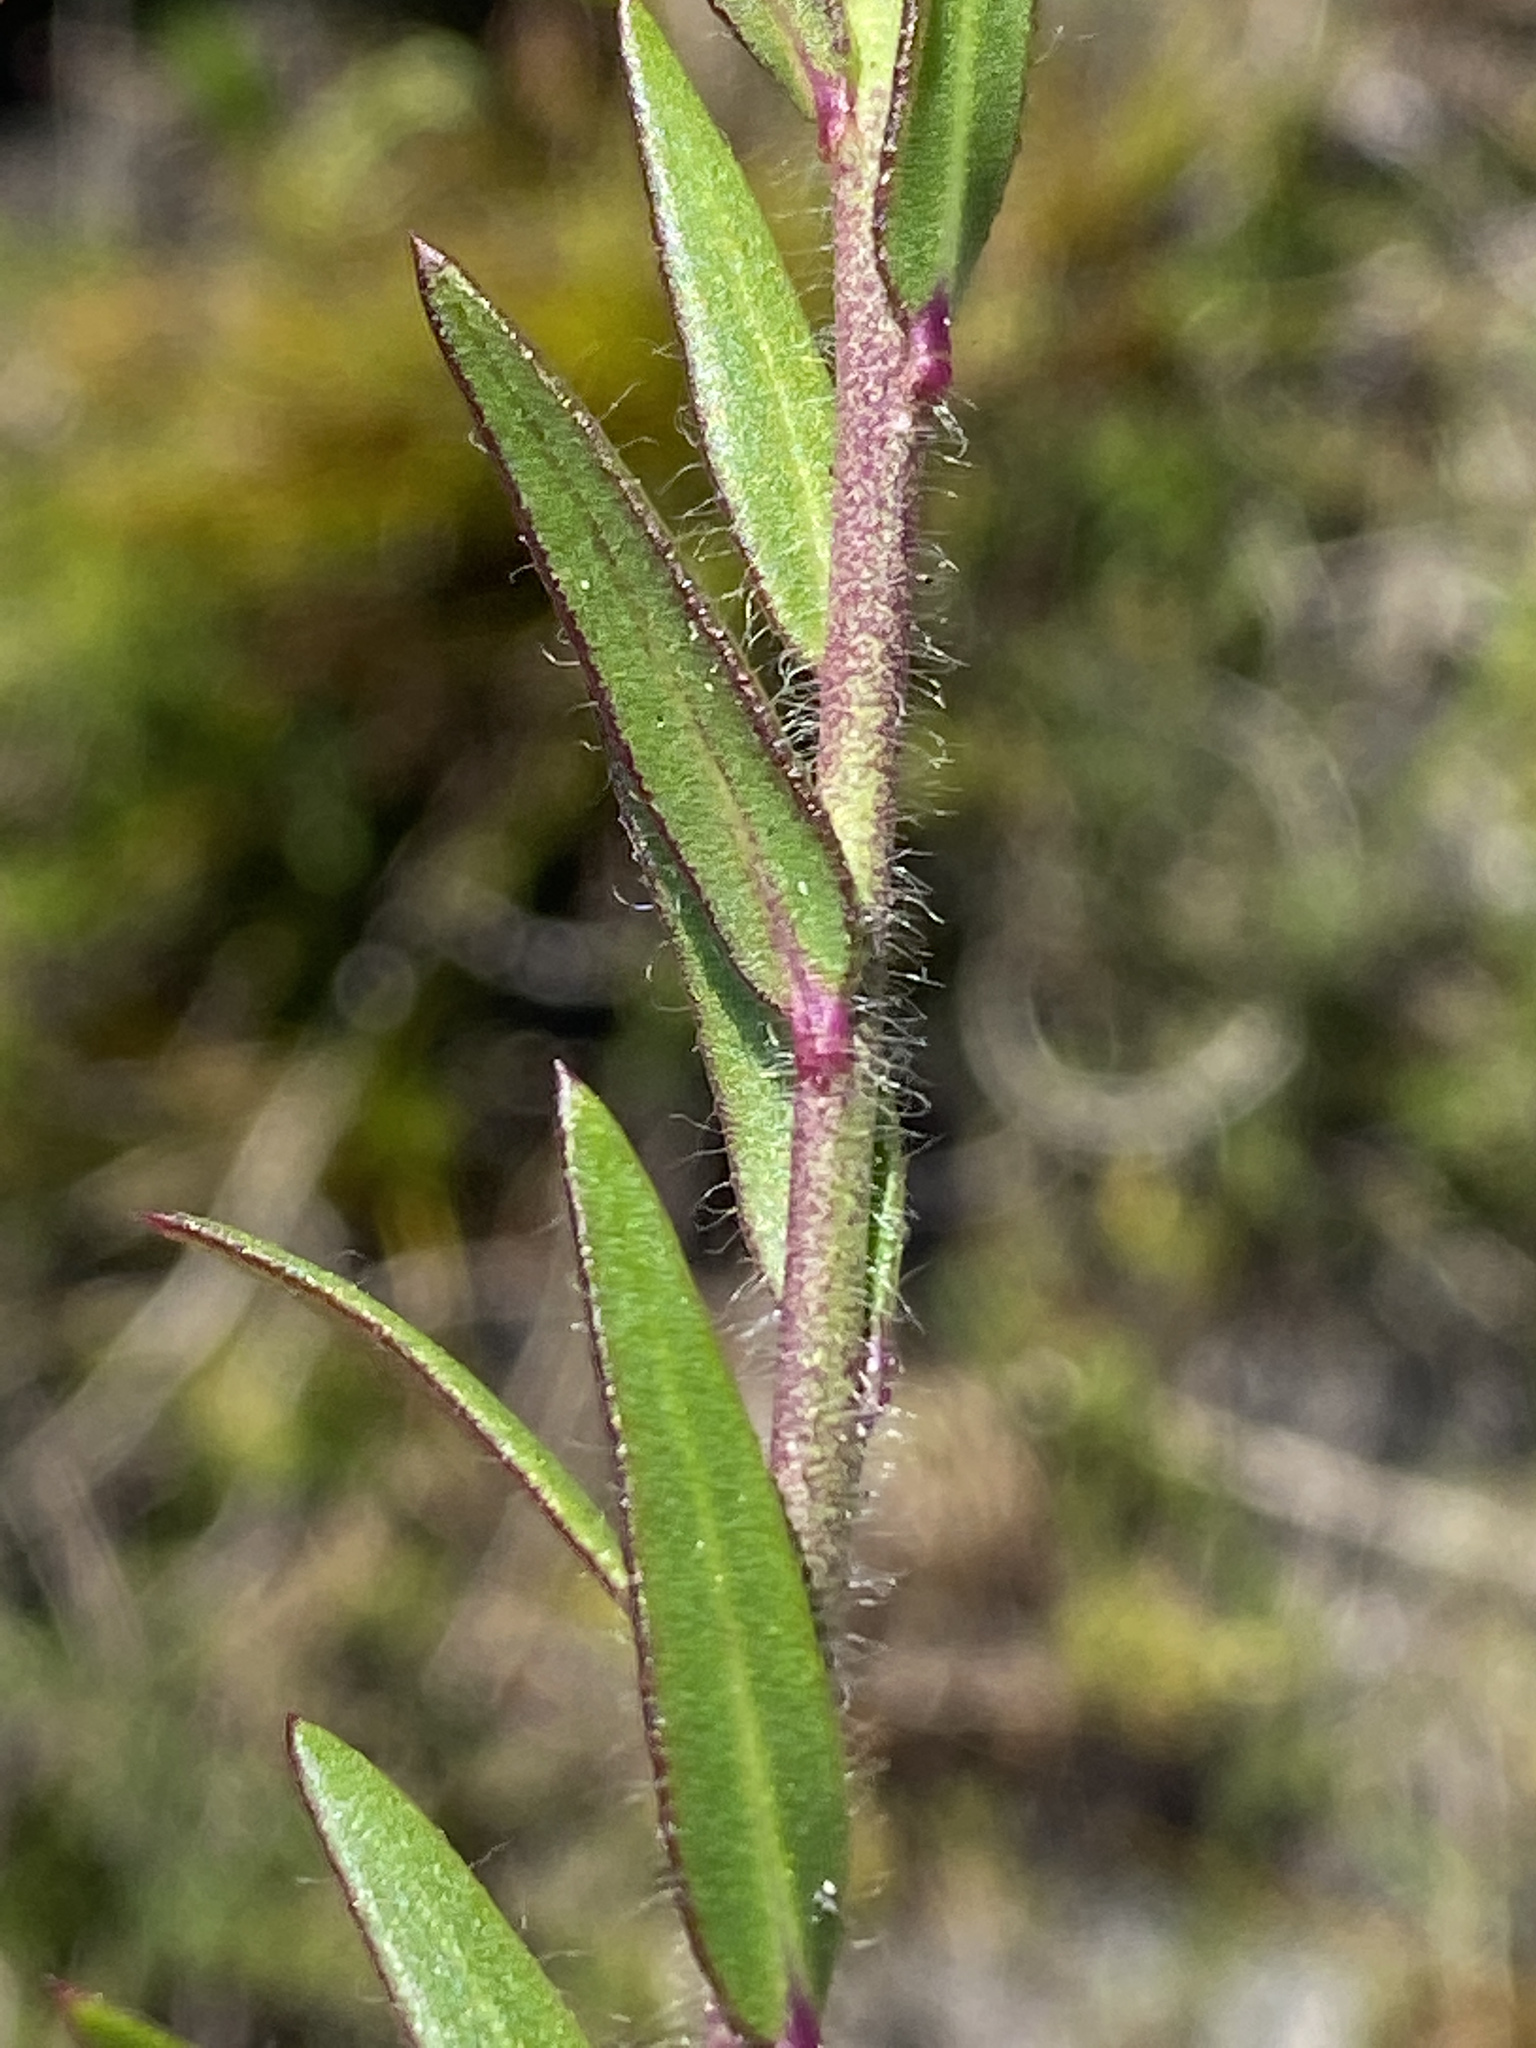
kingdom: Plantae
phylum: Tracheophyta
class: Magnoliopsida
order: Fabales
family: Polygalaceae
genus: Polygala
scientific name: Polygala bracteolata
